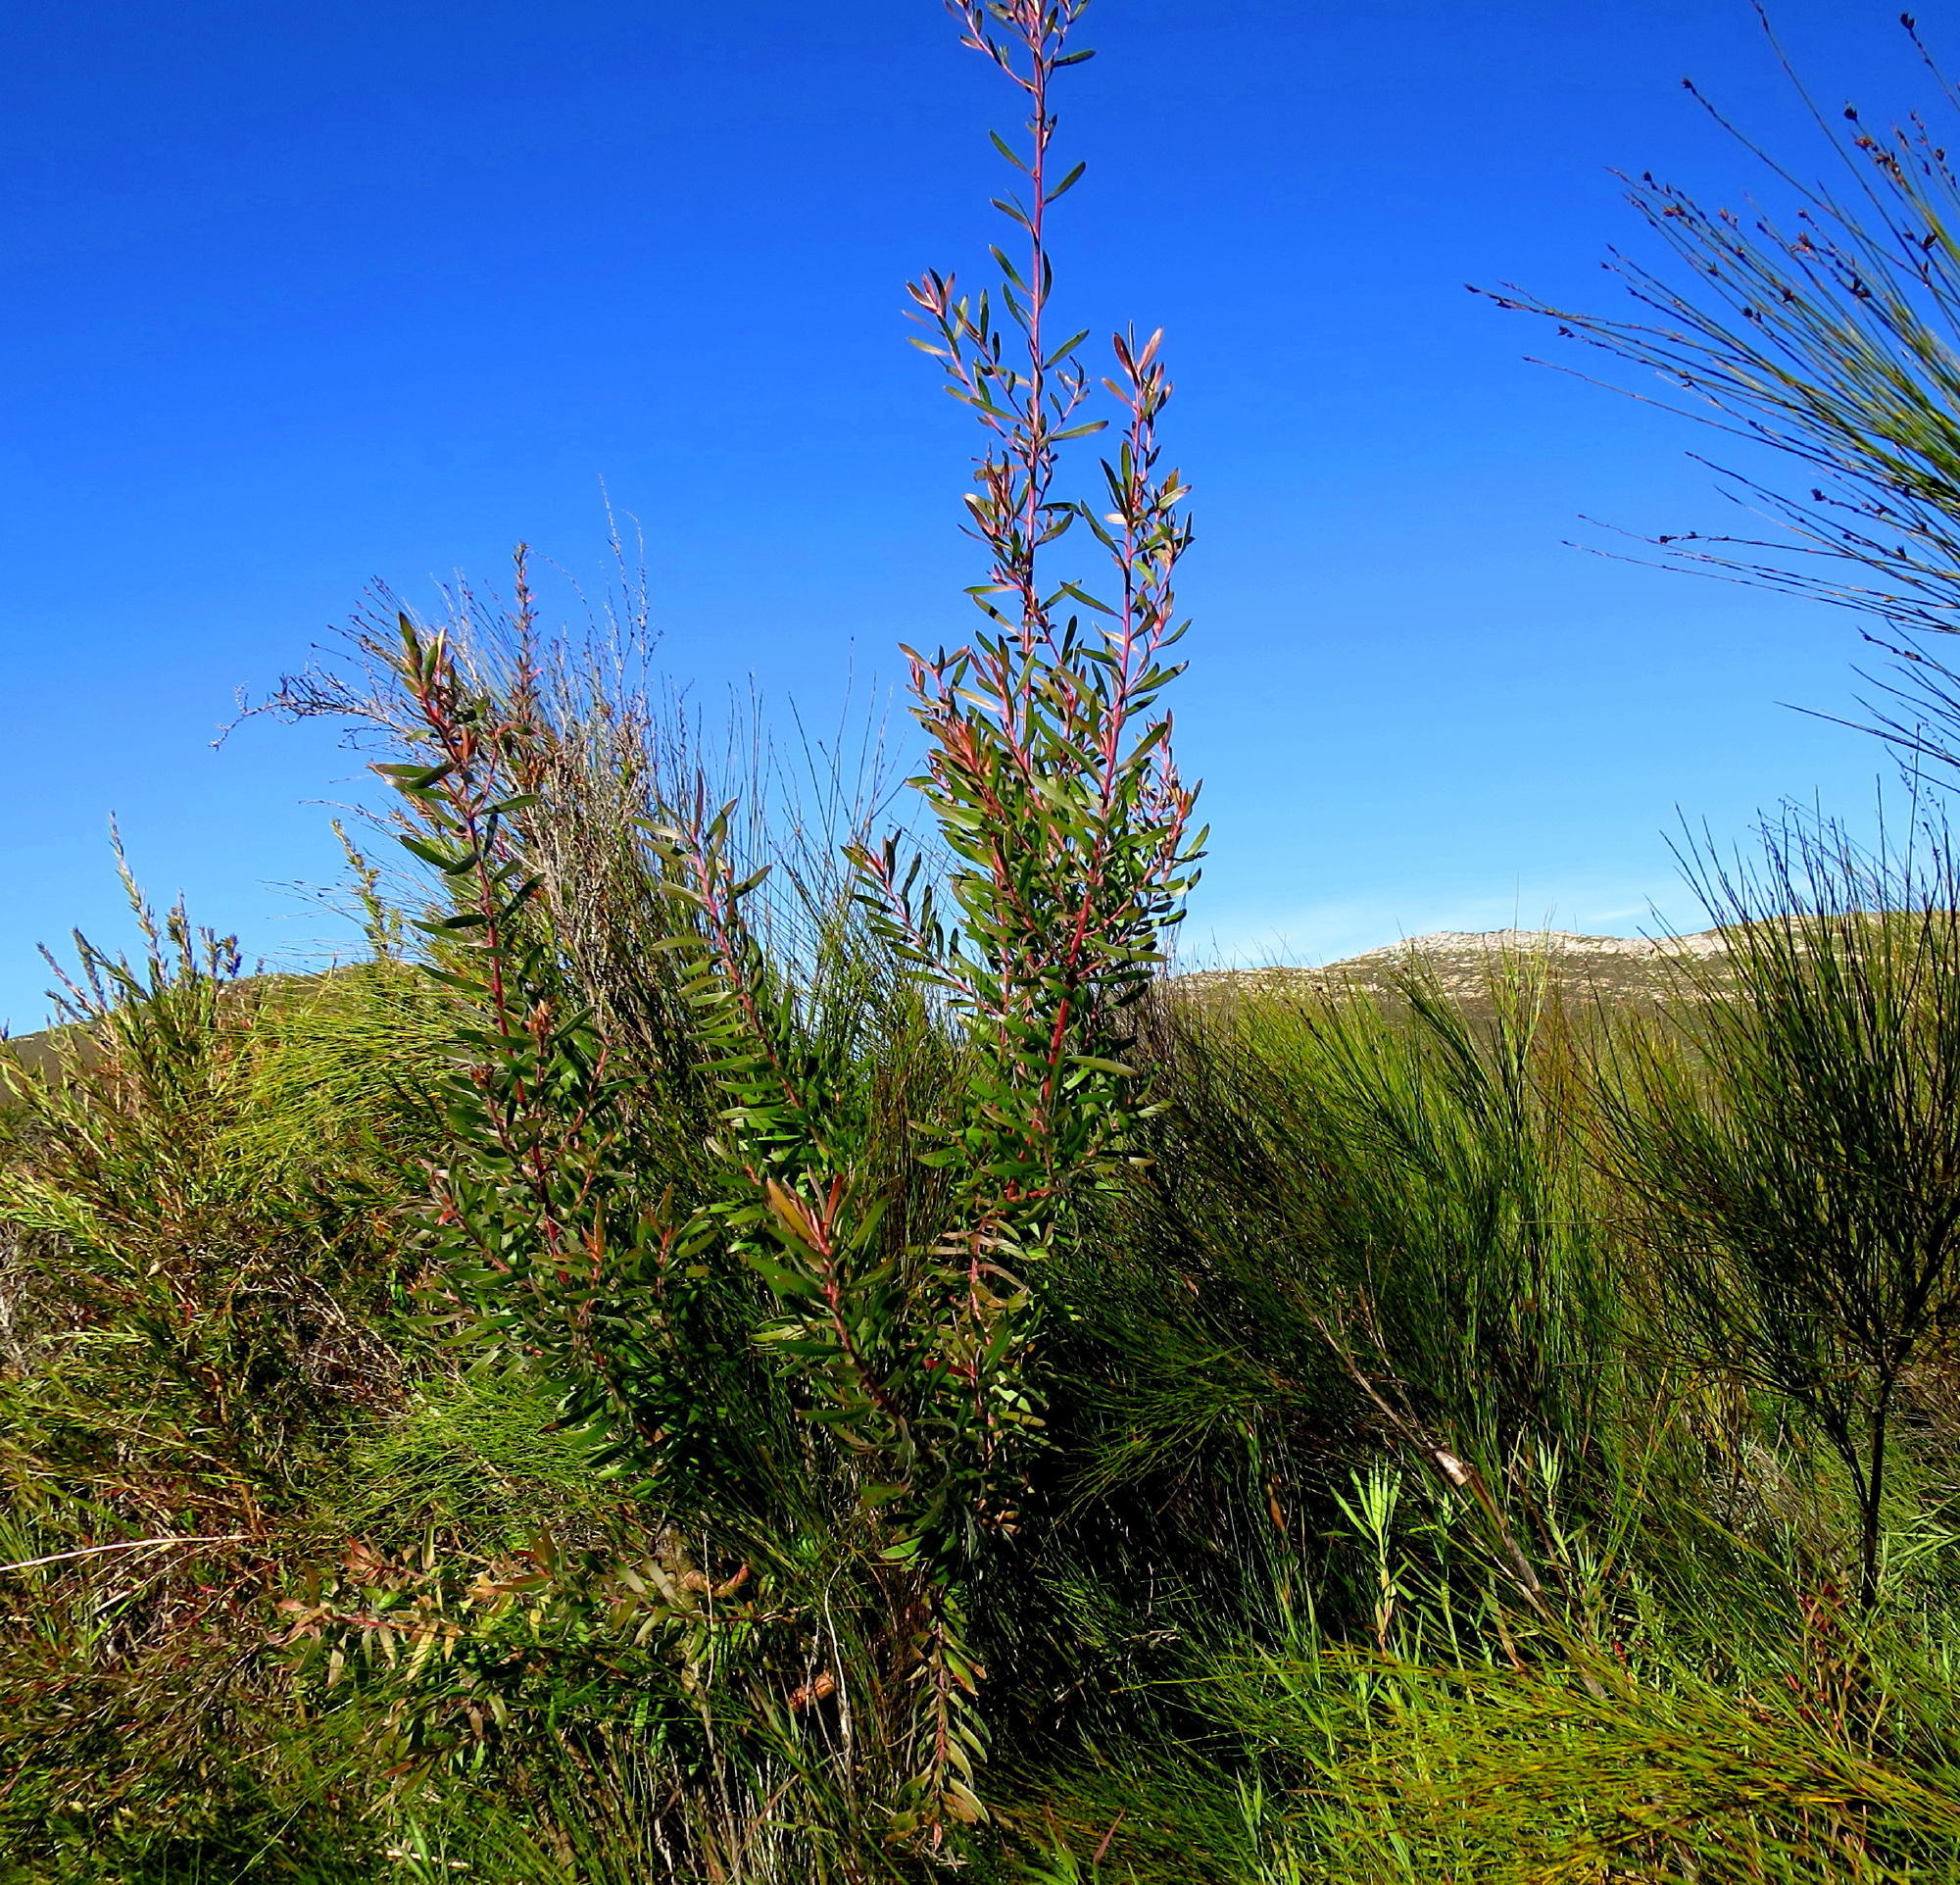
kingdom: Plantae
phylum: Tracheophyta
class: Magnoliopsida
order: Proteales
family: Proteaceae
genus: Leucadendron
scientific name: Leucadendron conicum
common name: Garden route conebush
